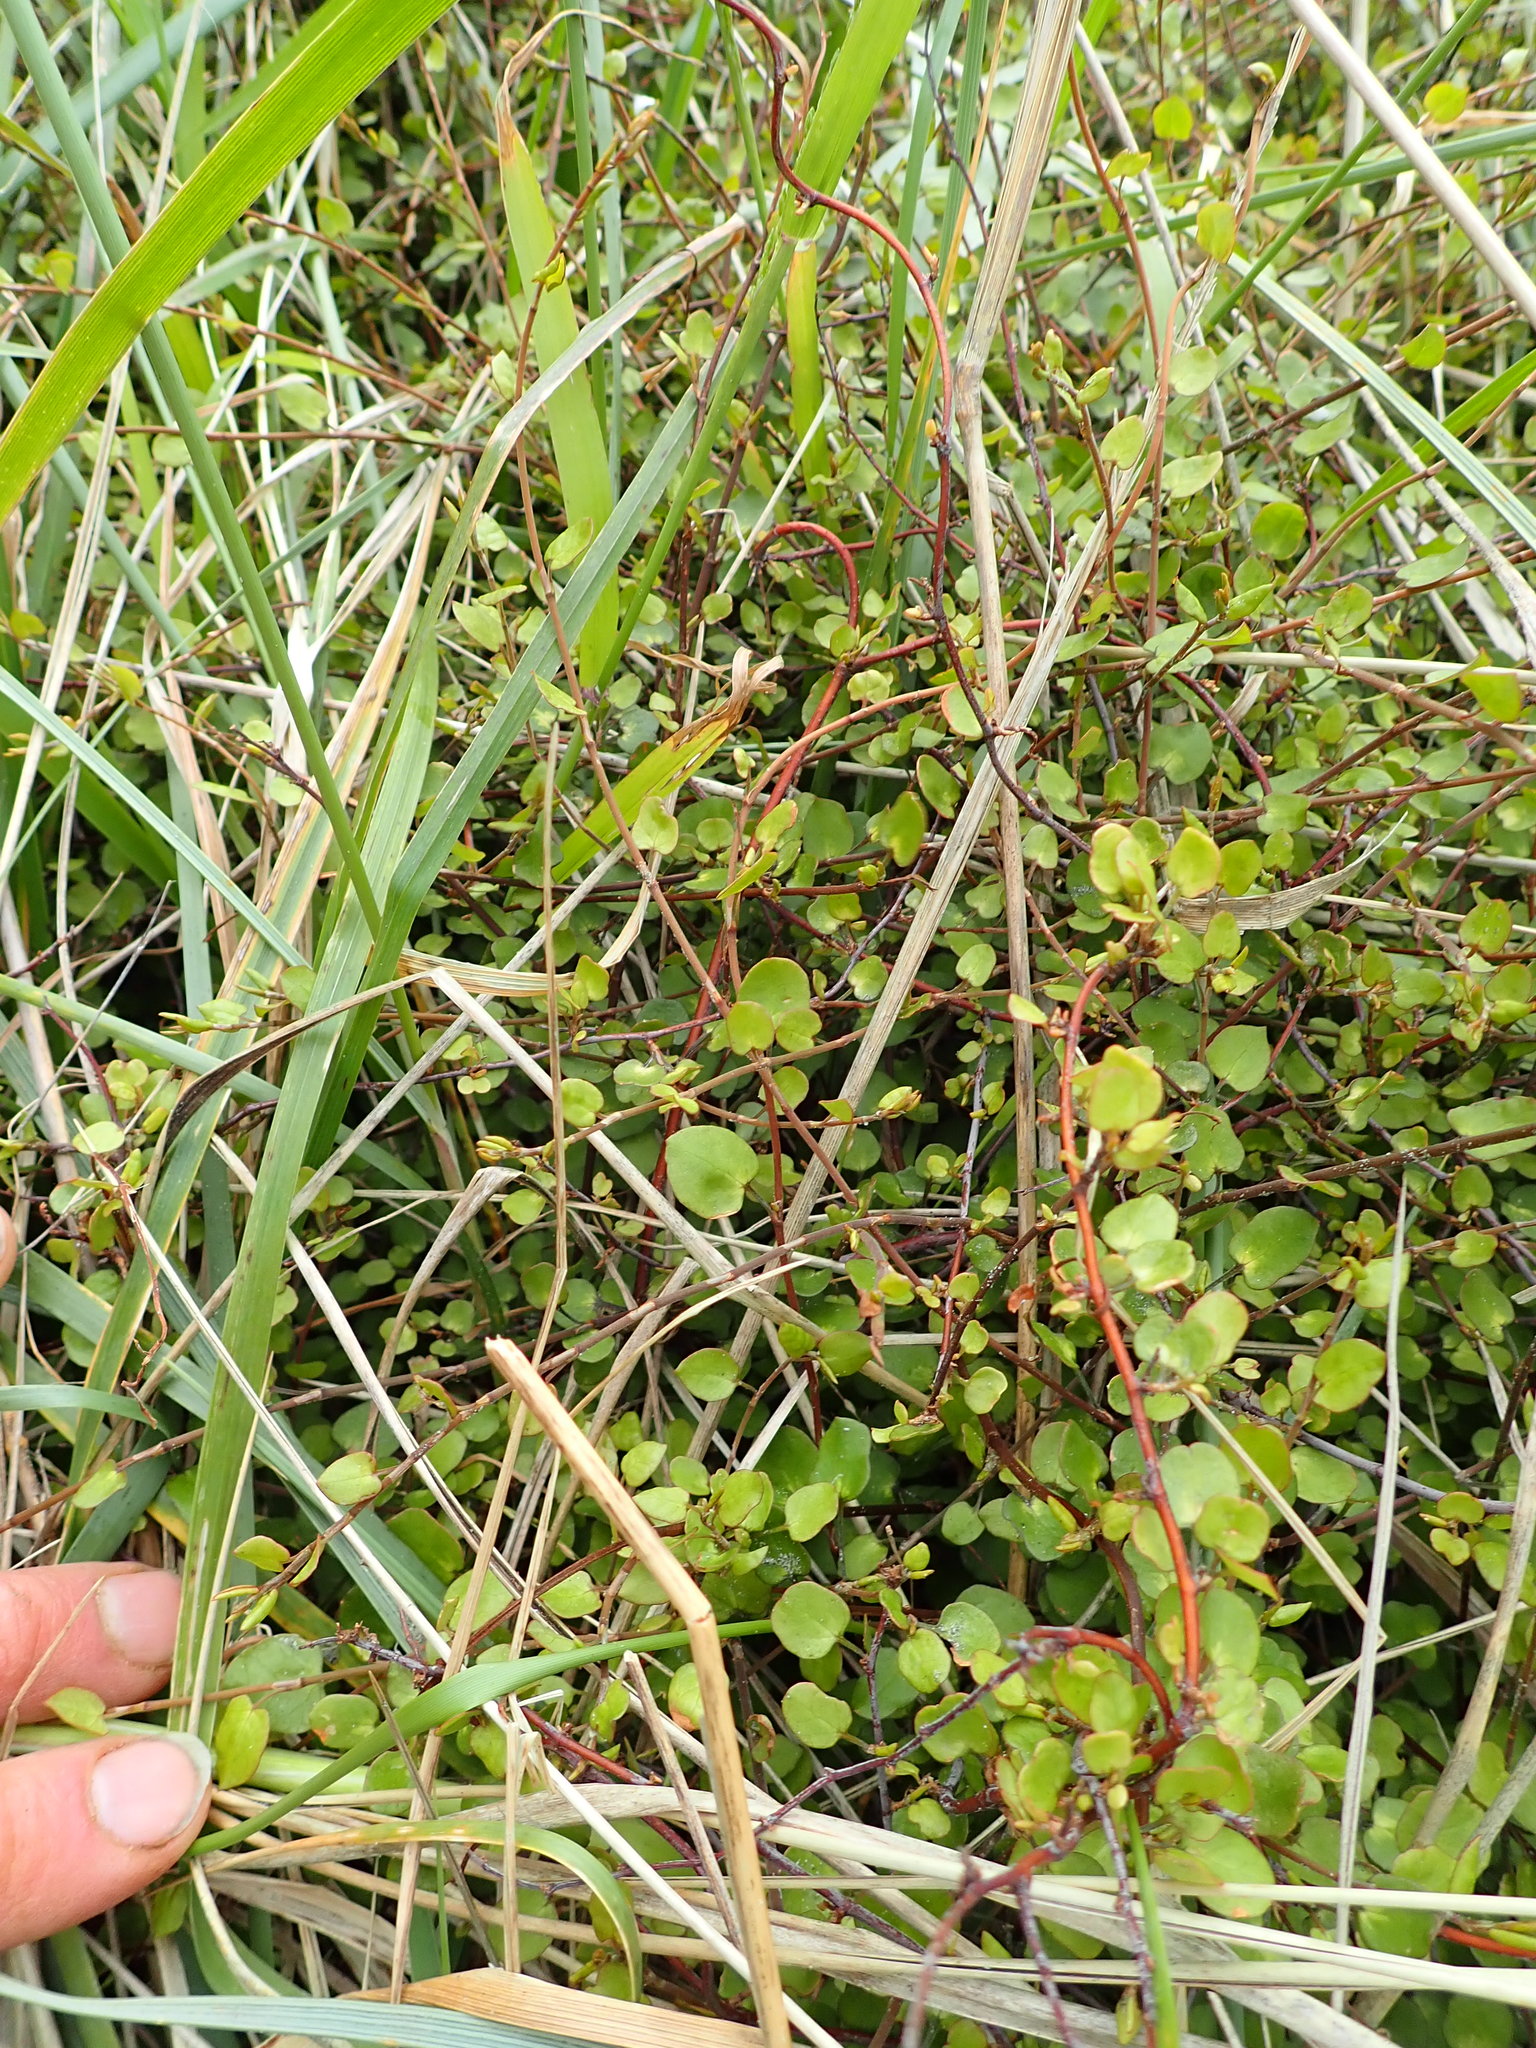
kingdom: Plantae
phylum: Tracheophyta
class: Magnoliopsida
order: Caryophyllales
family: Polygonaceae
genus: Muehlenbeckia
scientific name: Muehlenbeckia complexa
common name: Wireplant
